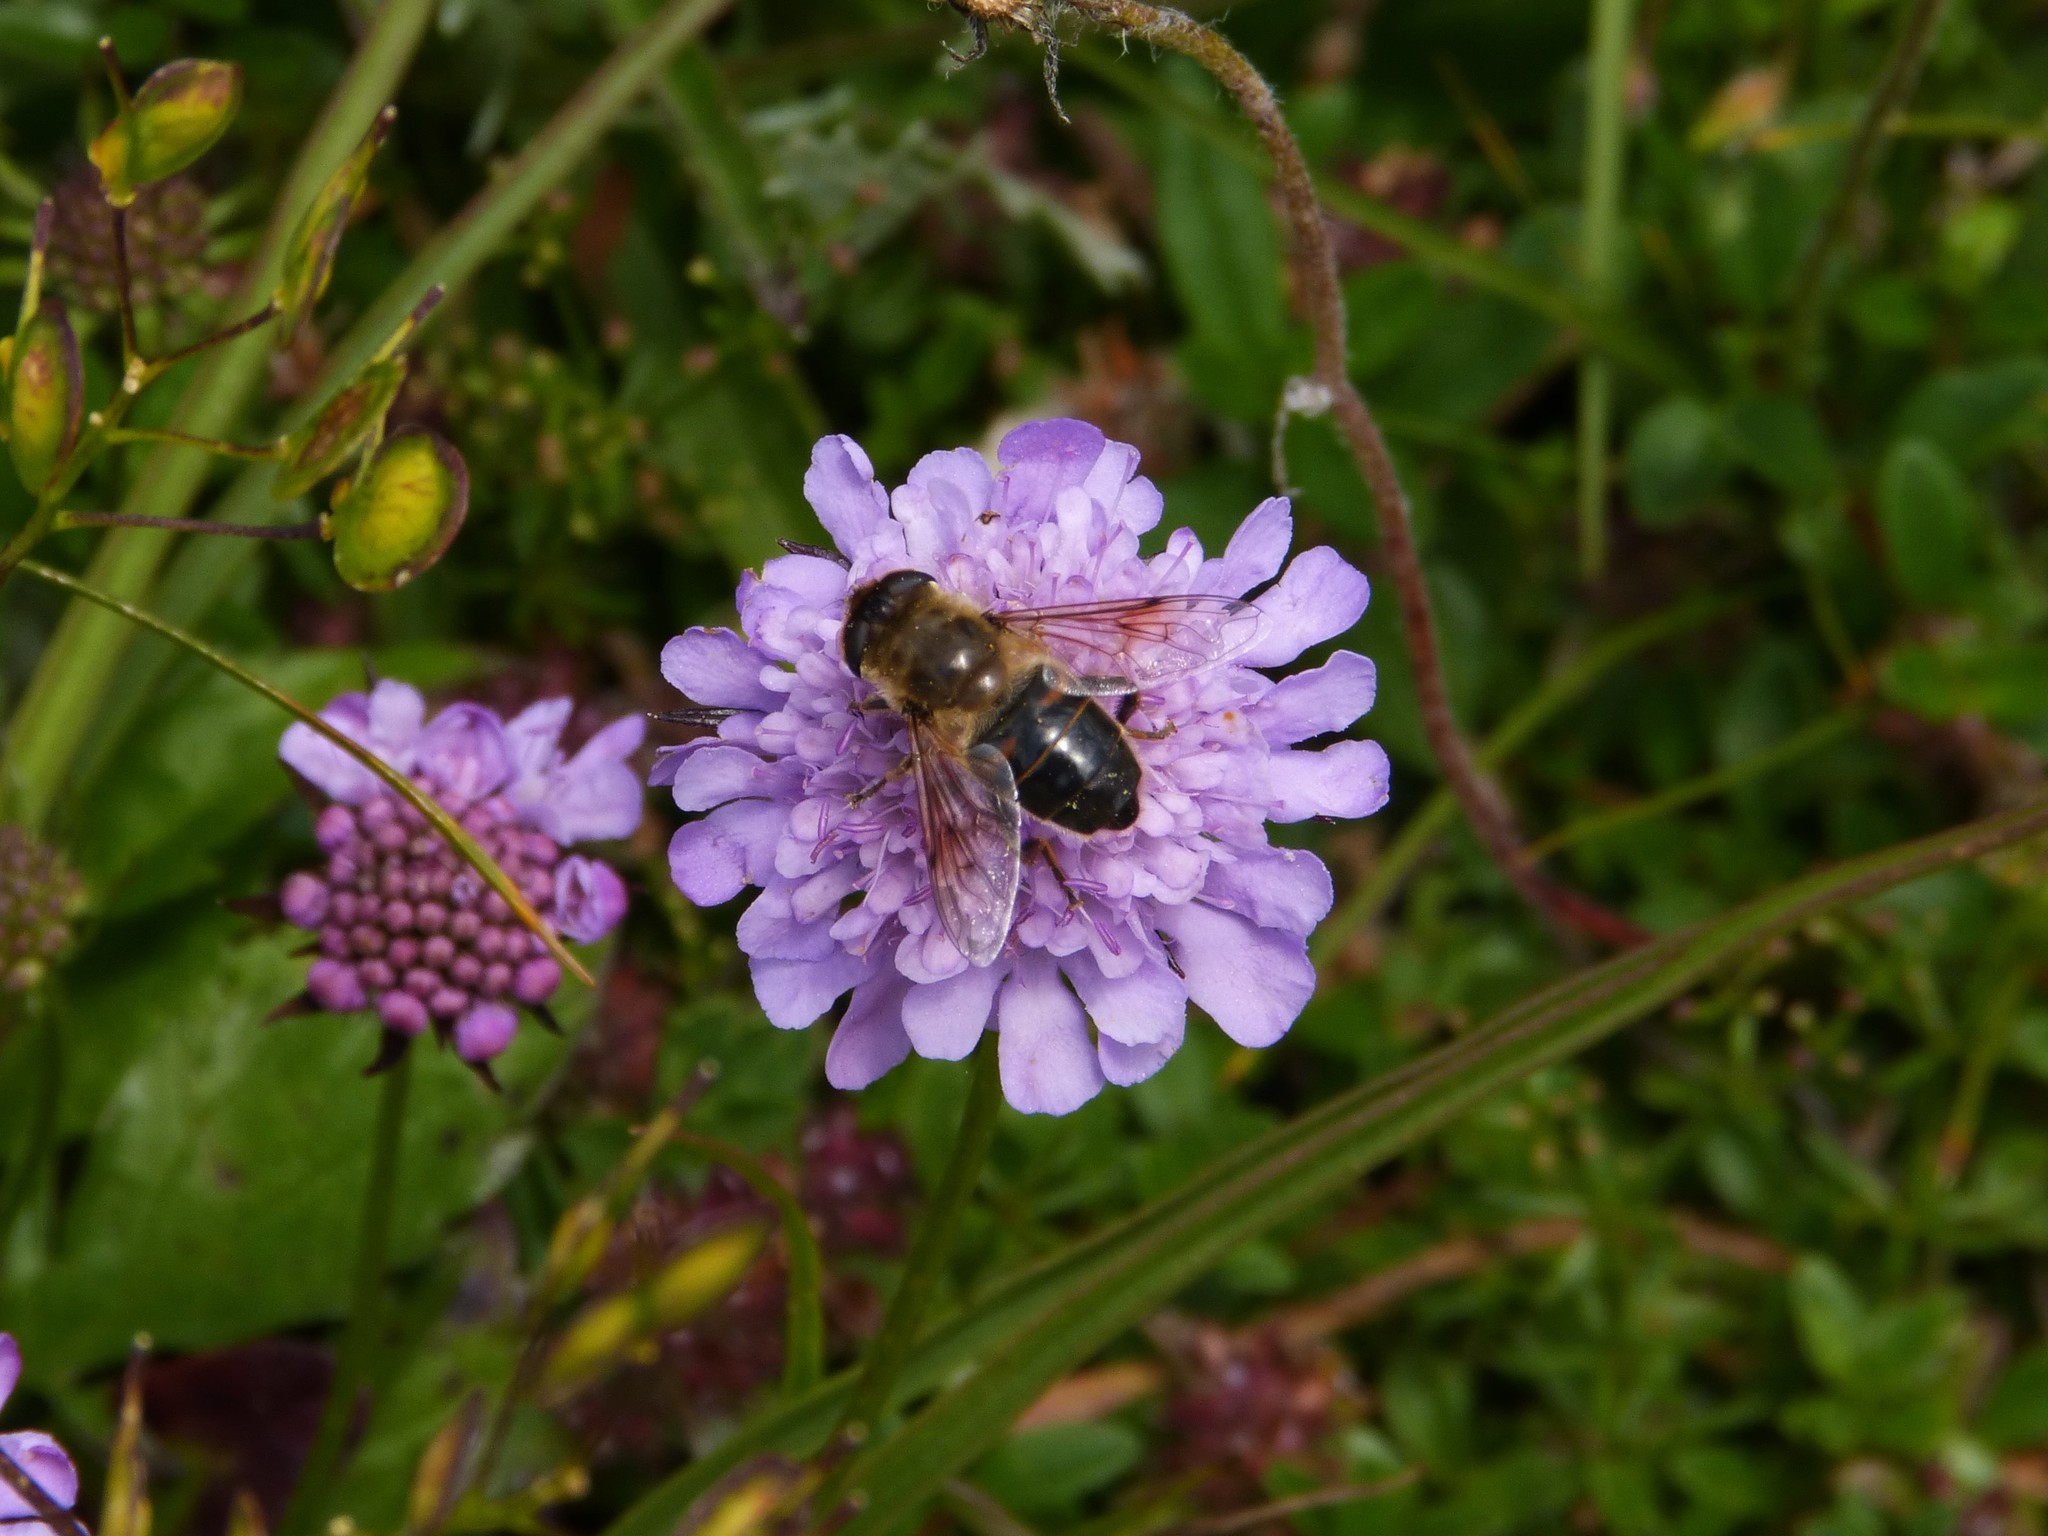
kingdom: Animalia
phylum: Arthropoda
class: Insecta
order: Diptera
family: Syrphidae
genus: Eristalis
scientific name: Eristalis tenax
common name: Drone fly
